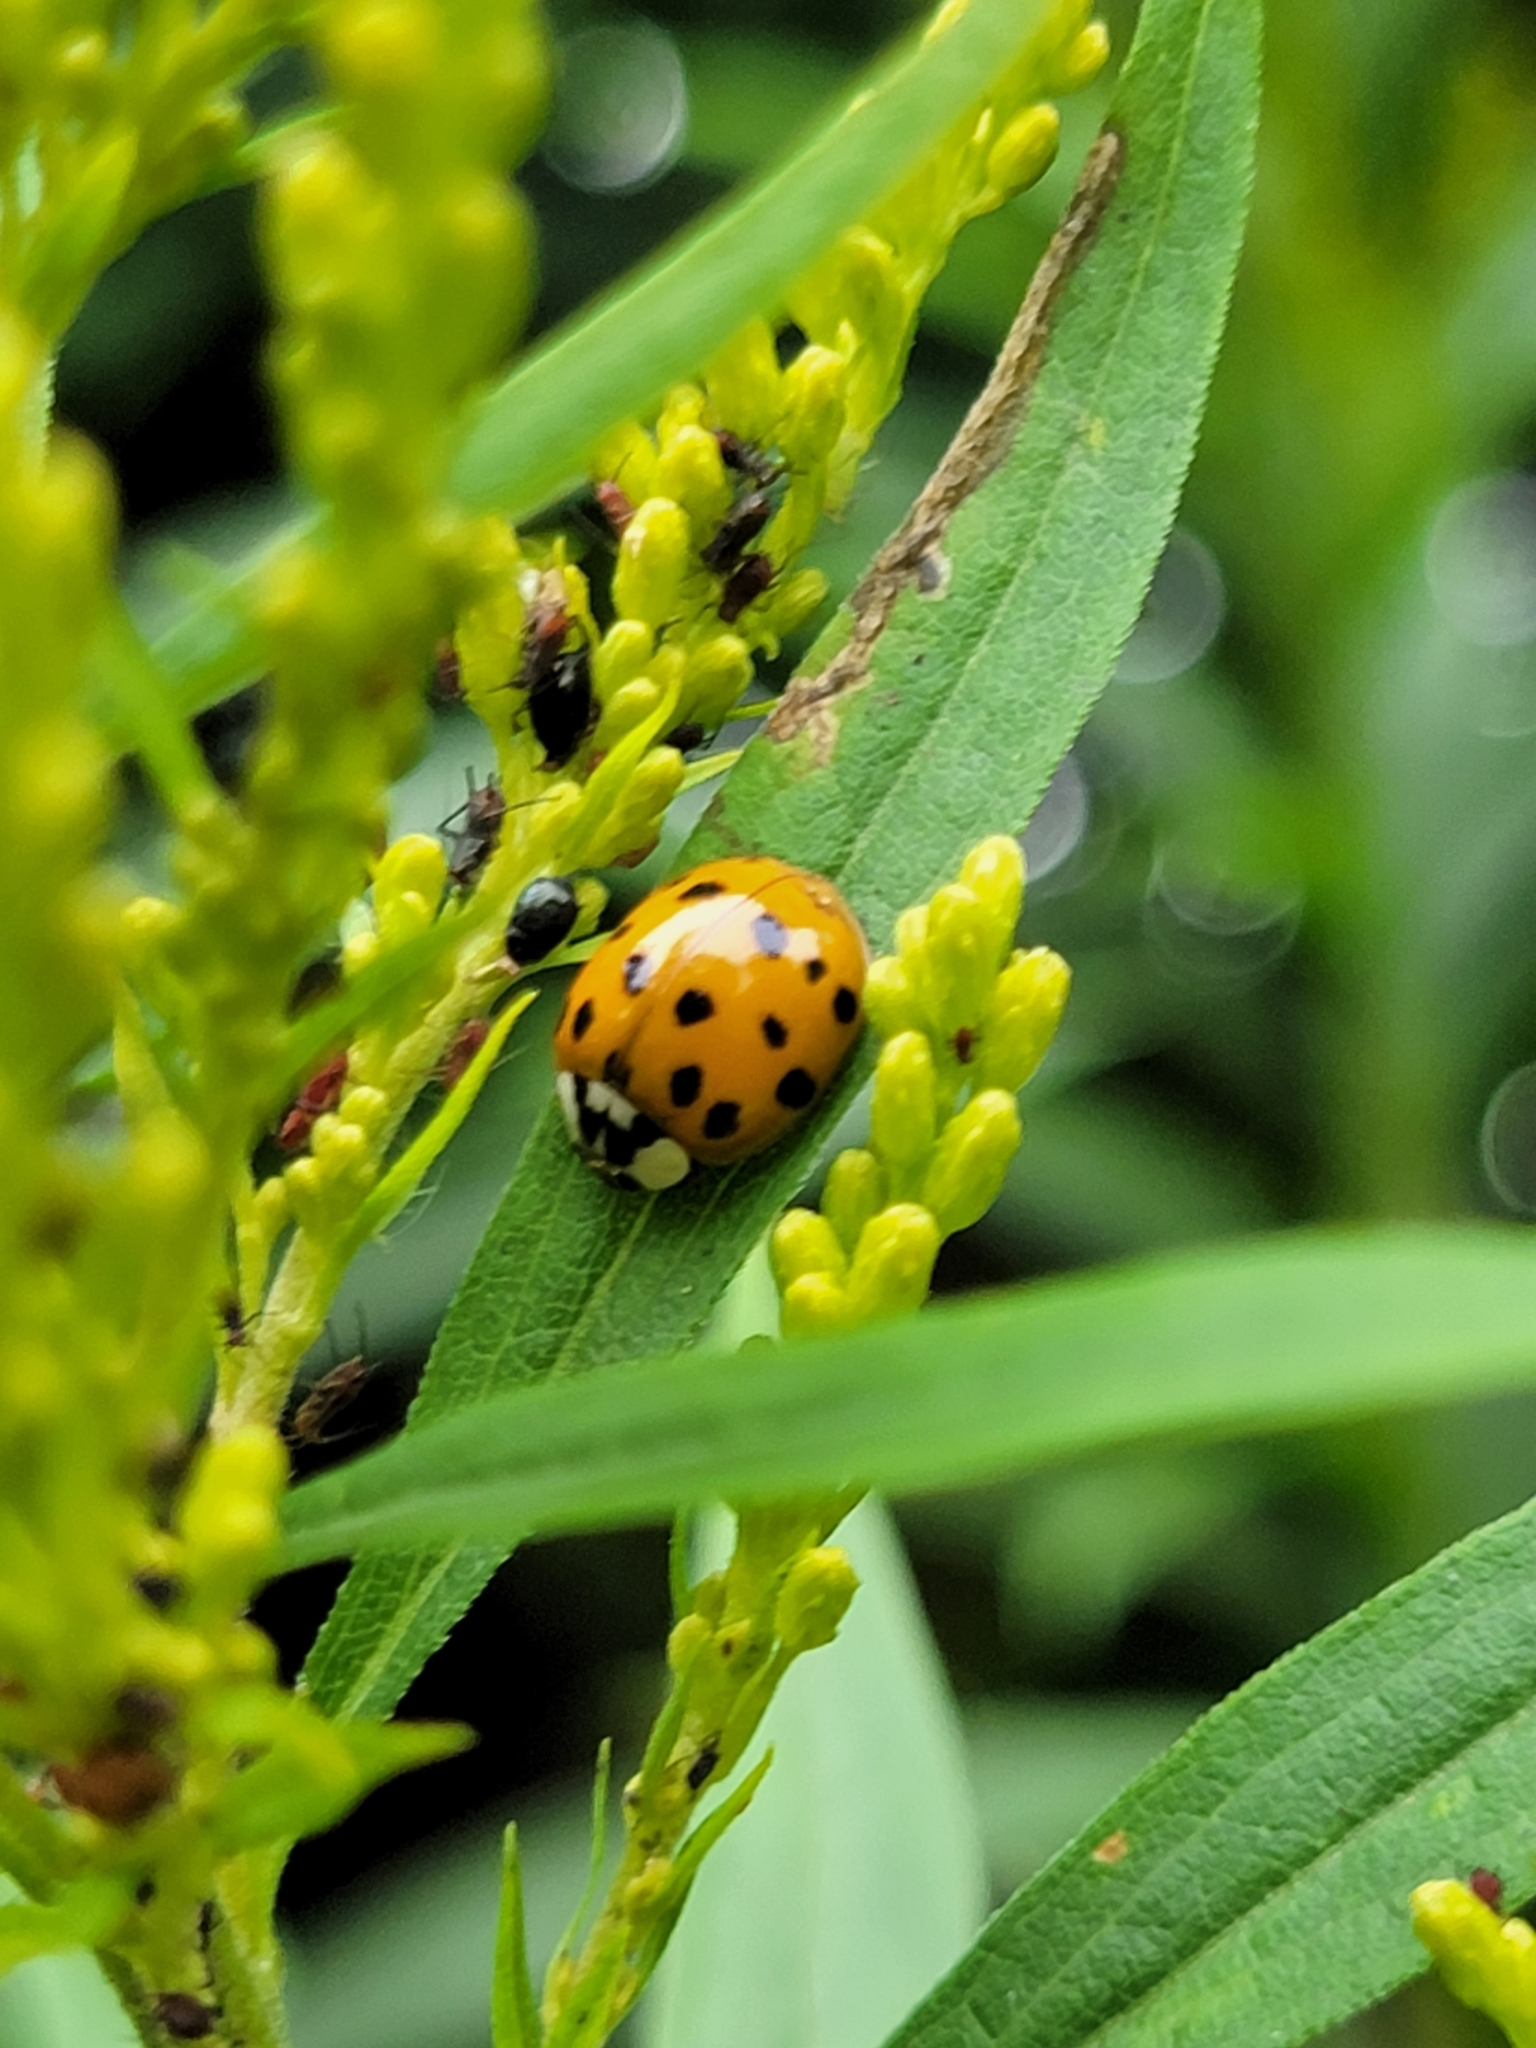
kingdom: Animalia
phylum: Arthropoda
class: Insecta
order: Coleoptera
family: Coccinellidae
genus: Harmonia
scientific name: Harmonia axyridis
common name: Harlequin ladybird
